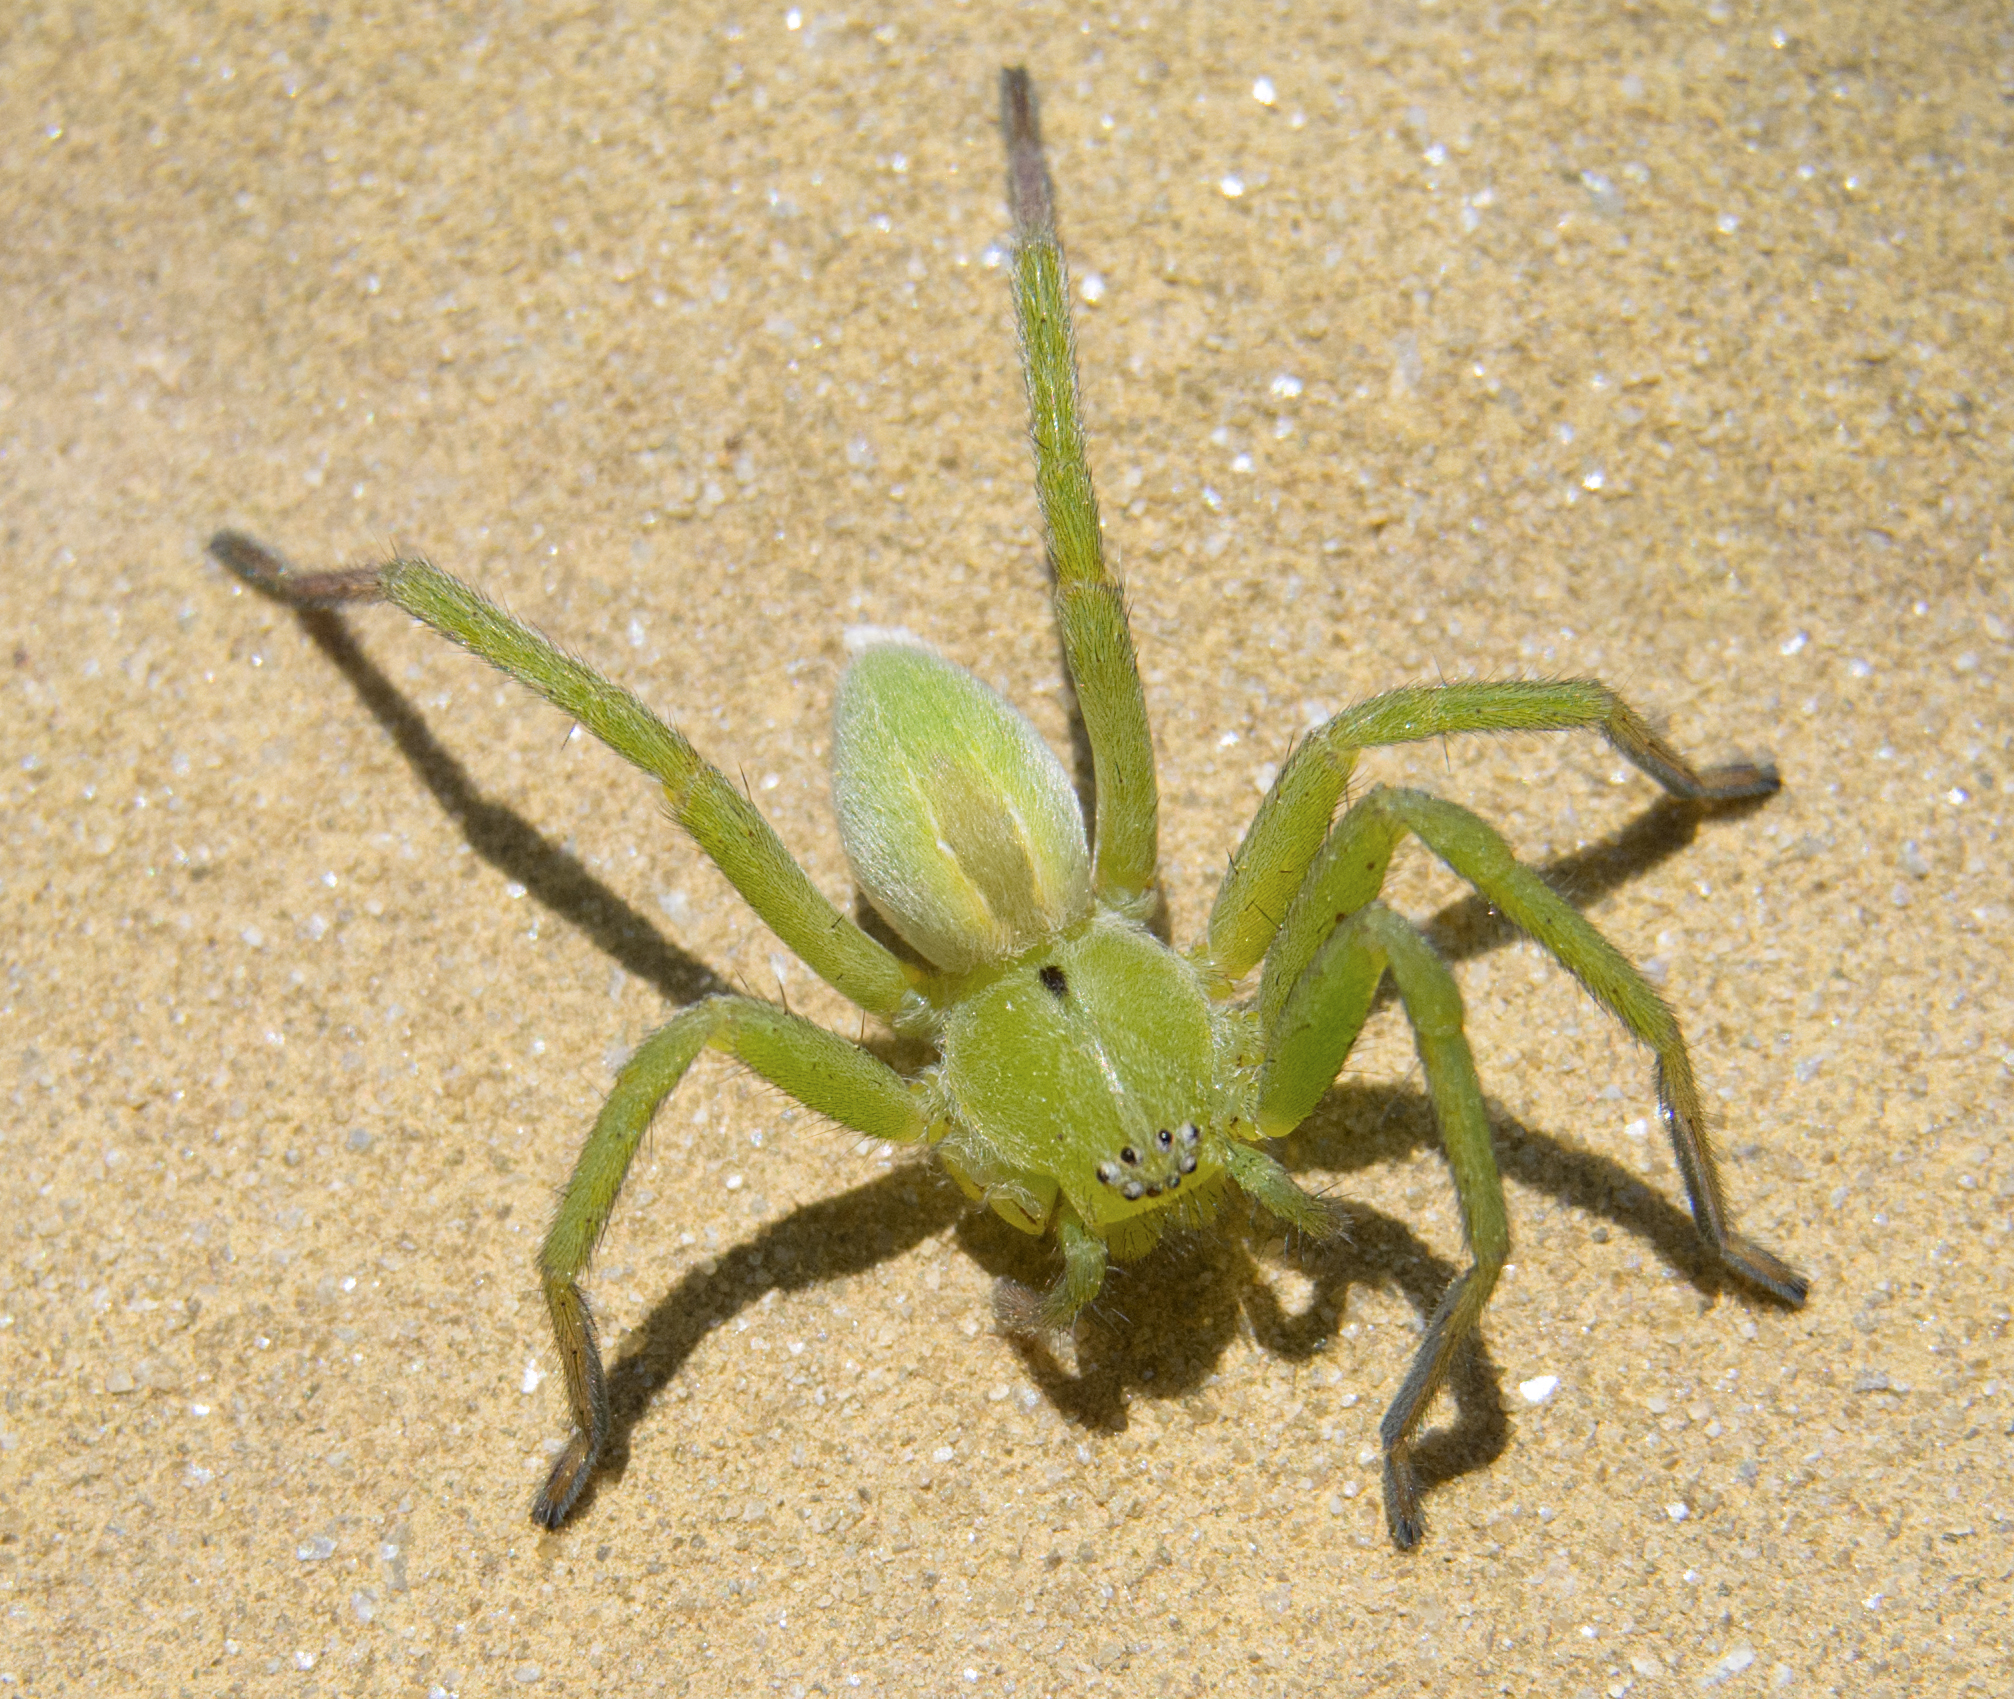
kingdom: Animalia
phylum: Arthropoda
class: Arachnida
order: Araneae
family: Sparassidae
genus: Micrommata
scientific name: Micrommata ligurina
